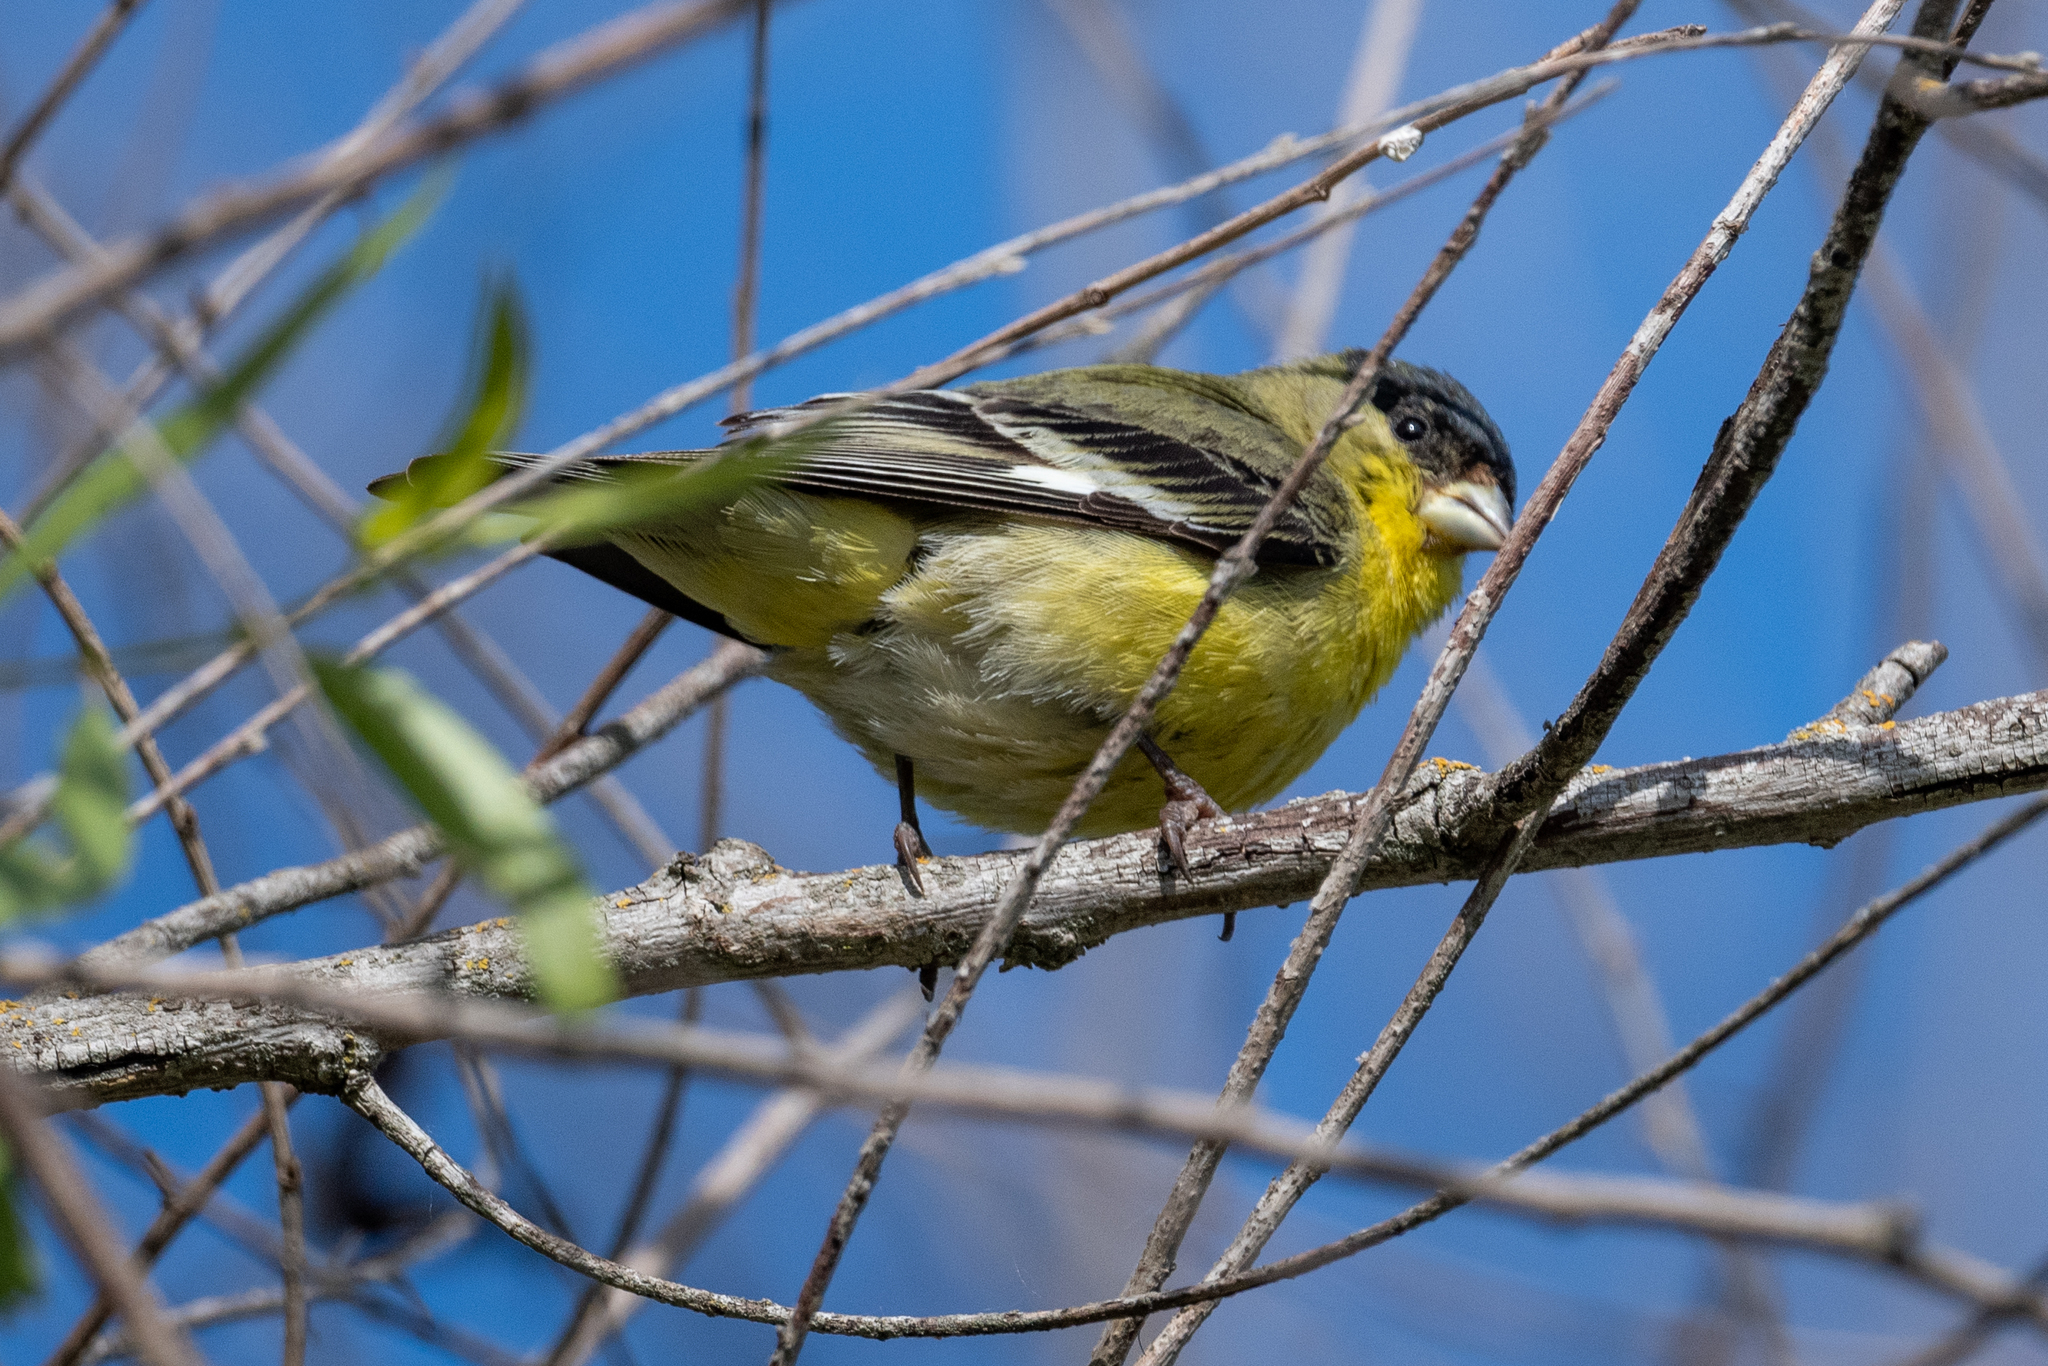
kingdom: Animalia
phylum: Chordata
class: Aves
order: Passeriformes
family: Fringillidae
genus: Spinus
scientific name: Spinus psaltria
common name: Lesser goldfinch
